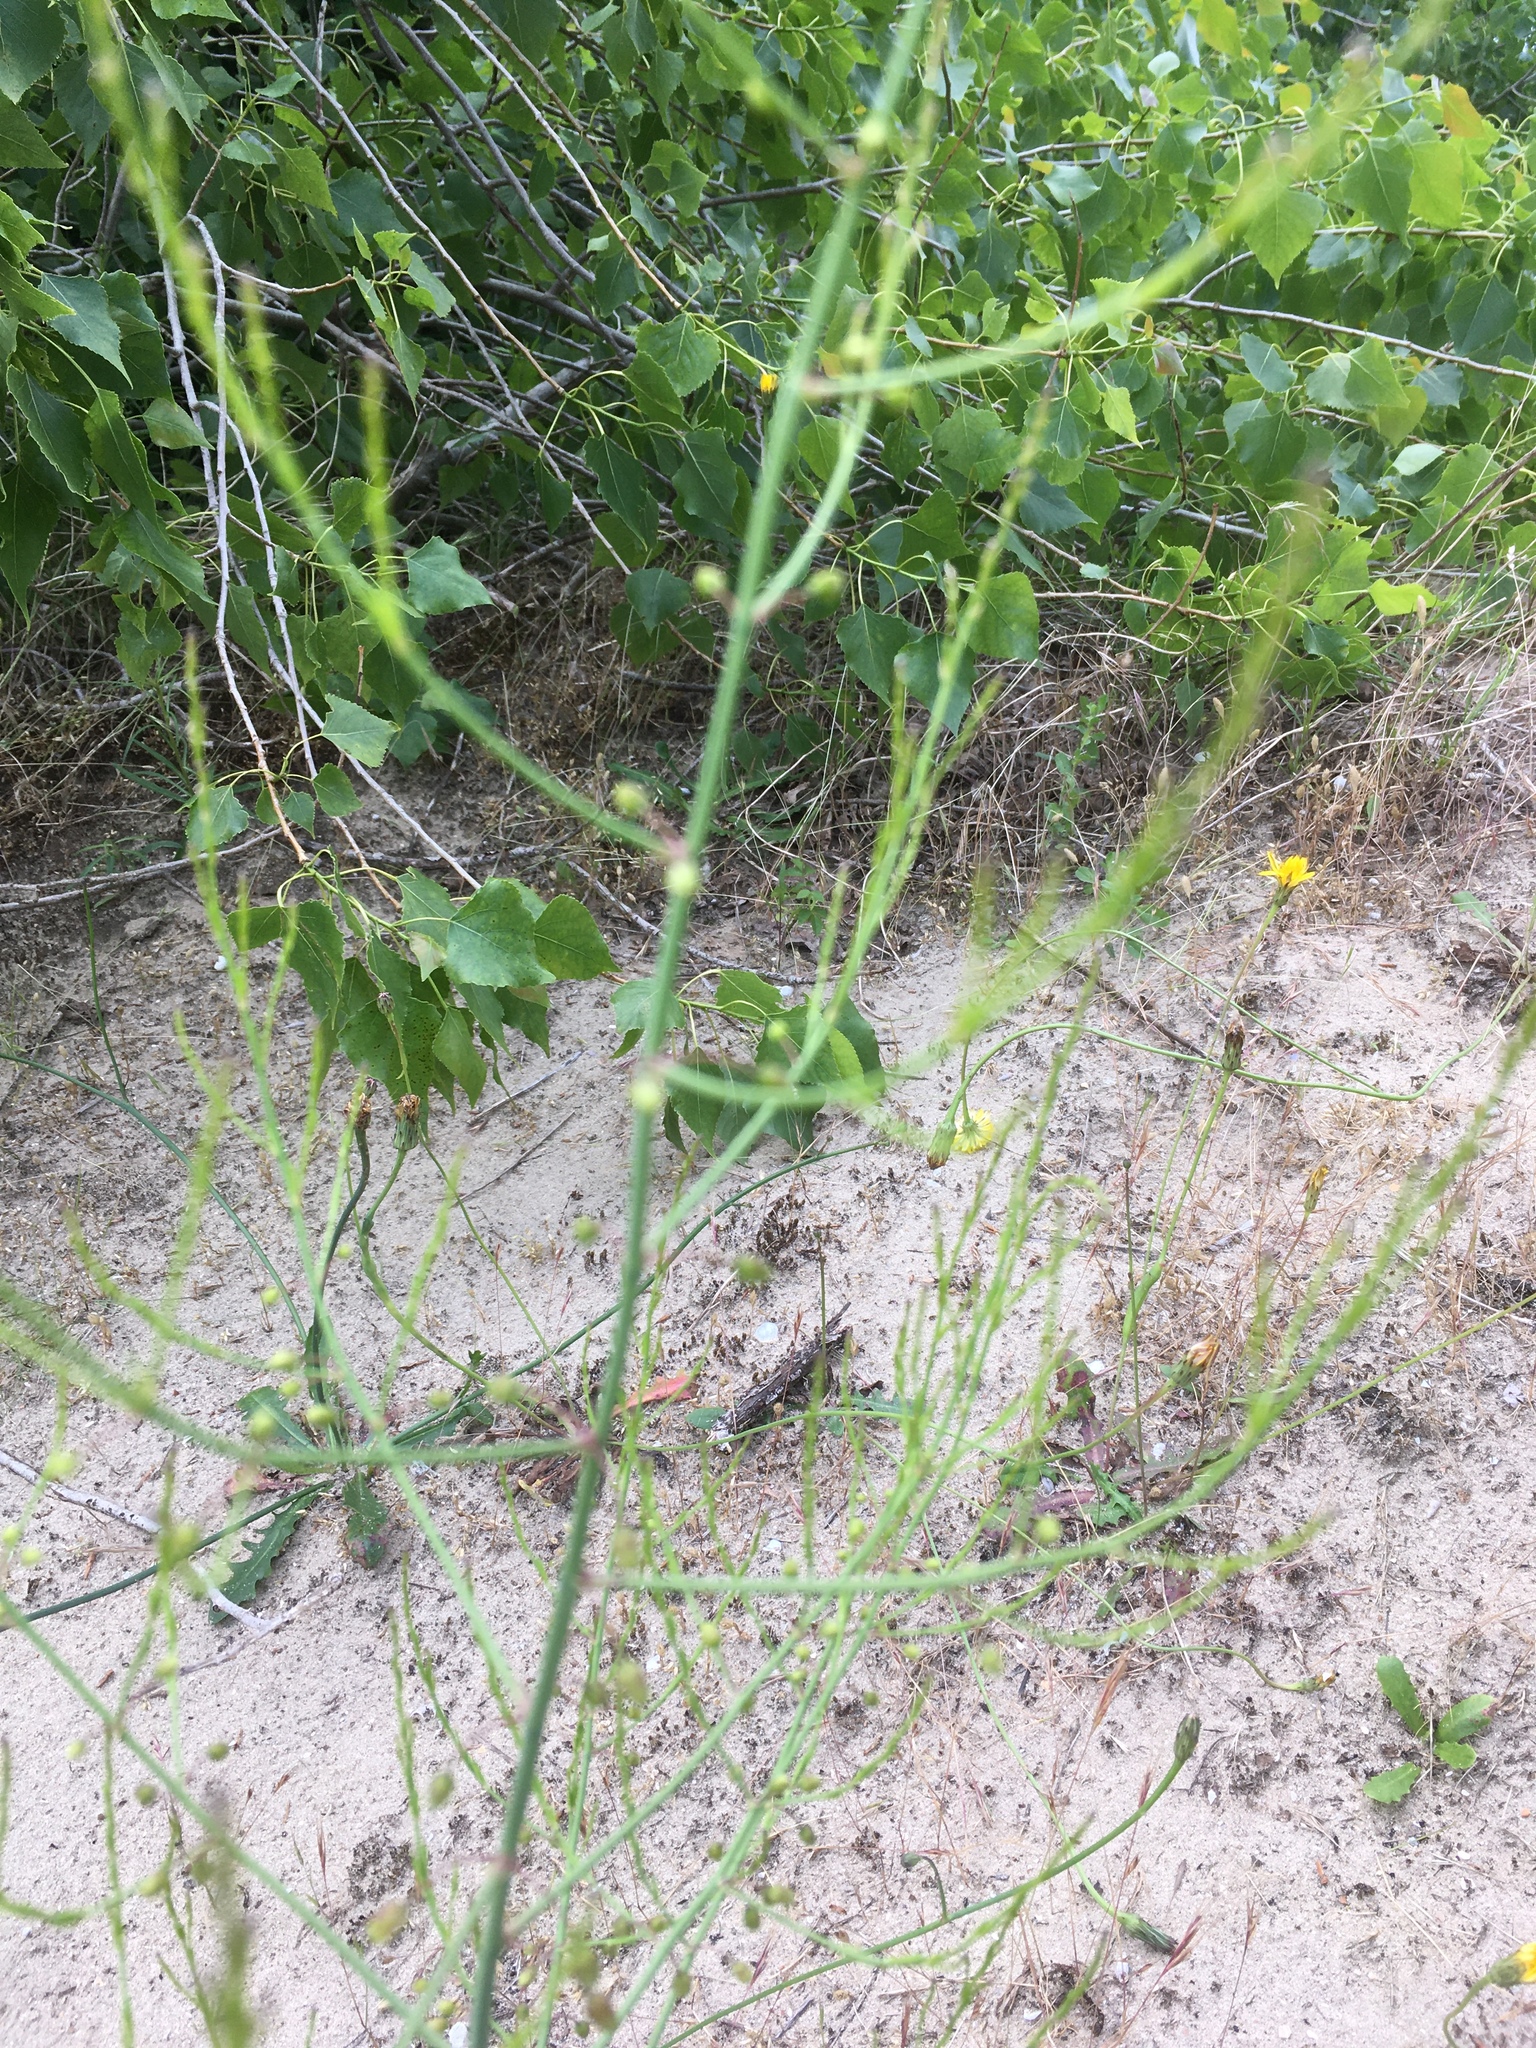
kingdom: Plantae
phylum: Tracheophyta
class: Liliopsida
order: Asparagales
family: Asparagaceae
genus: Asparagus
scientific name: Asparagus officinalis
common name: Garden asparagus
